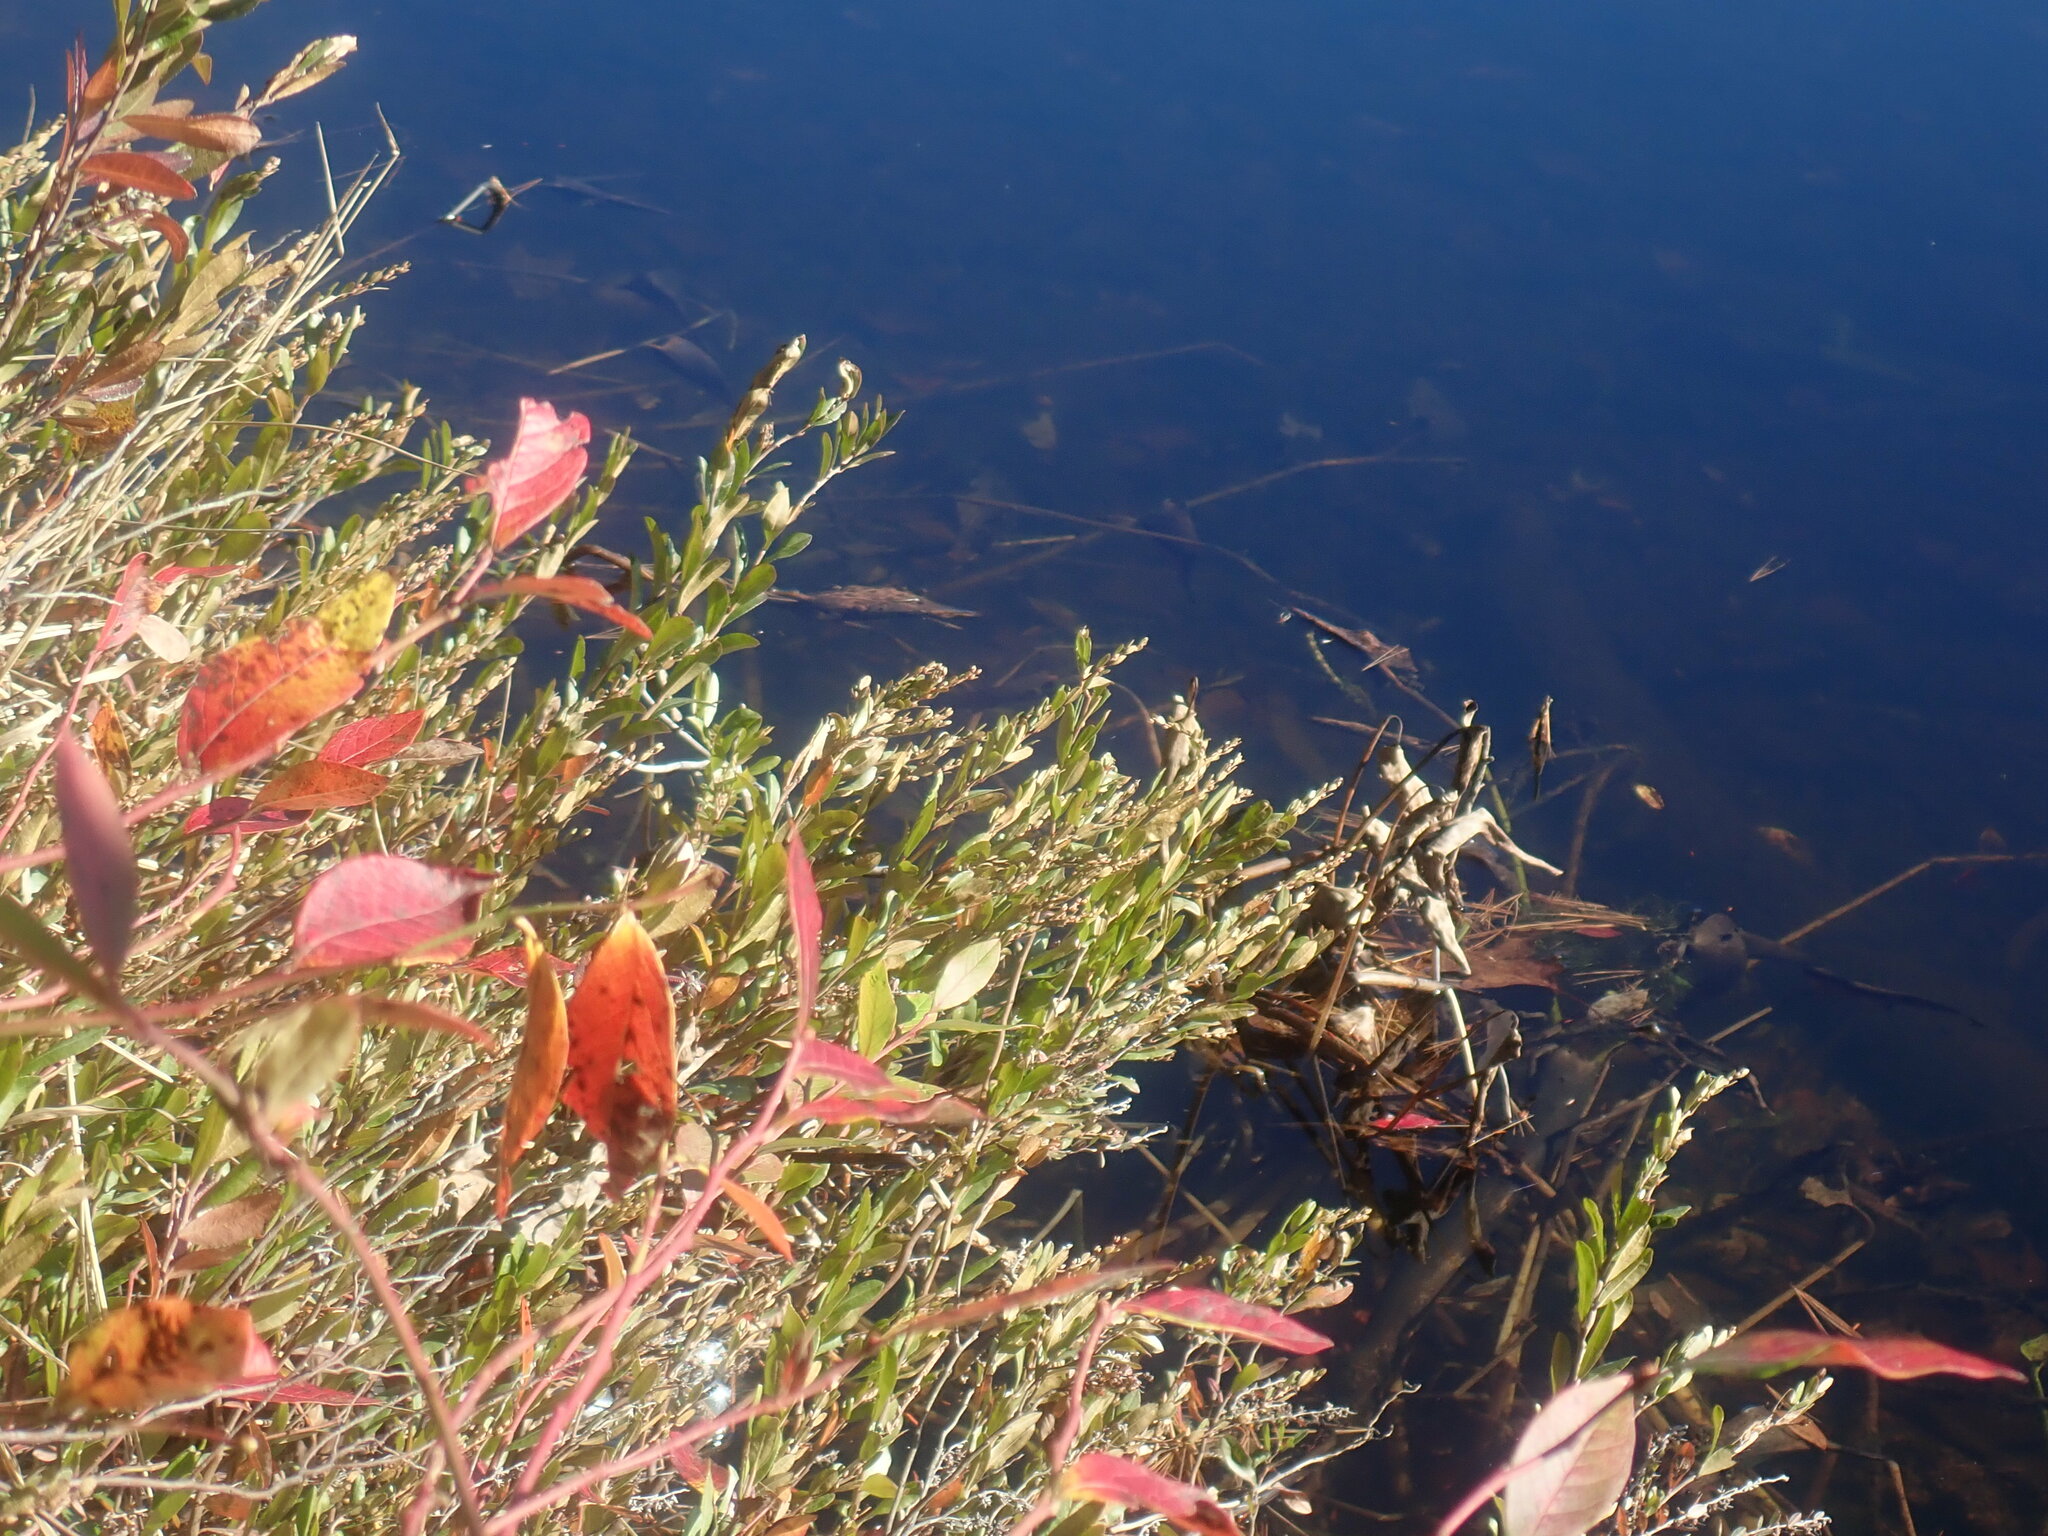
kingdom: Plantae
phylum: Tracheophyta
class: Magnoliopsida
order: Ericales
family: Ericaceae
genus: Chamaedaphne
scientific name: Chamaedaphne calyculata
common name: Leatherleaf
